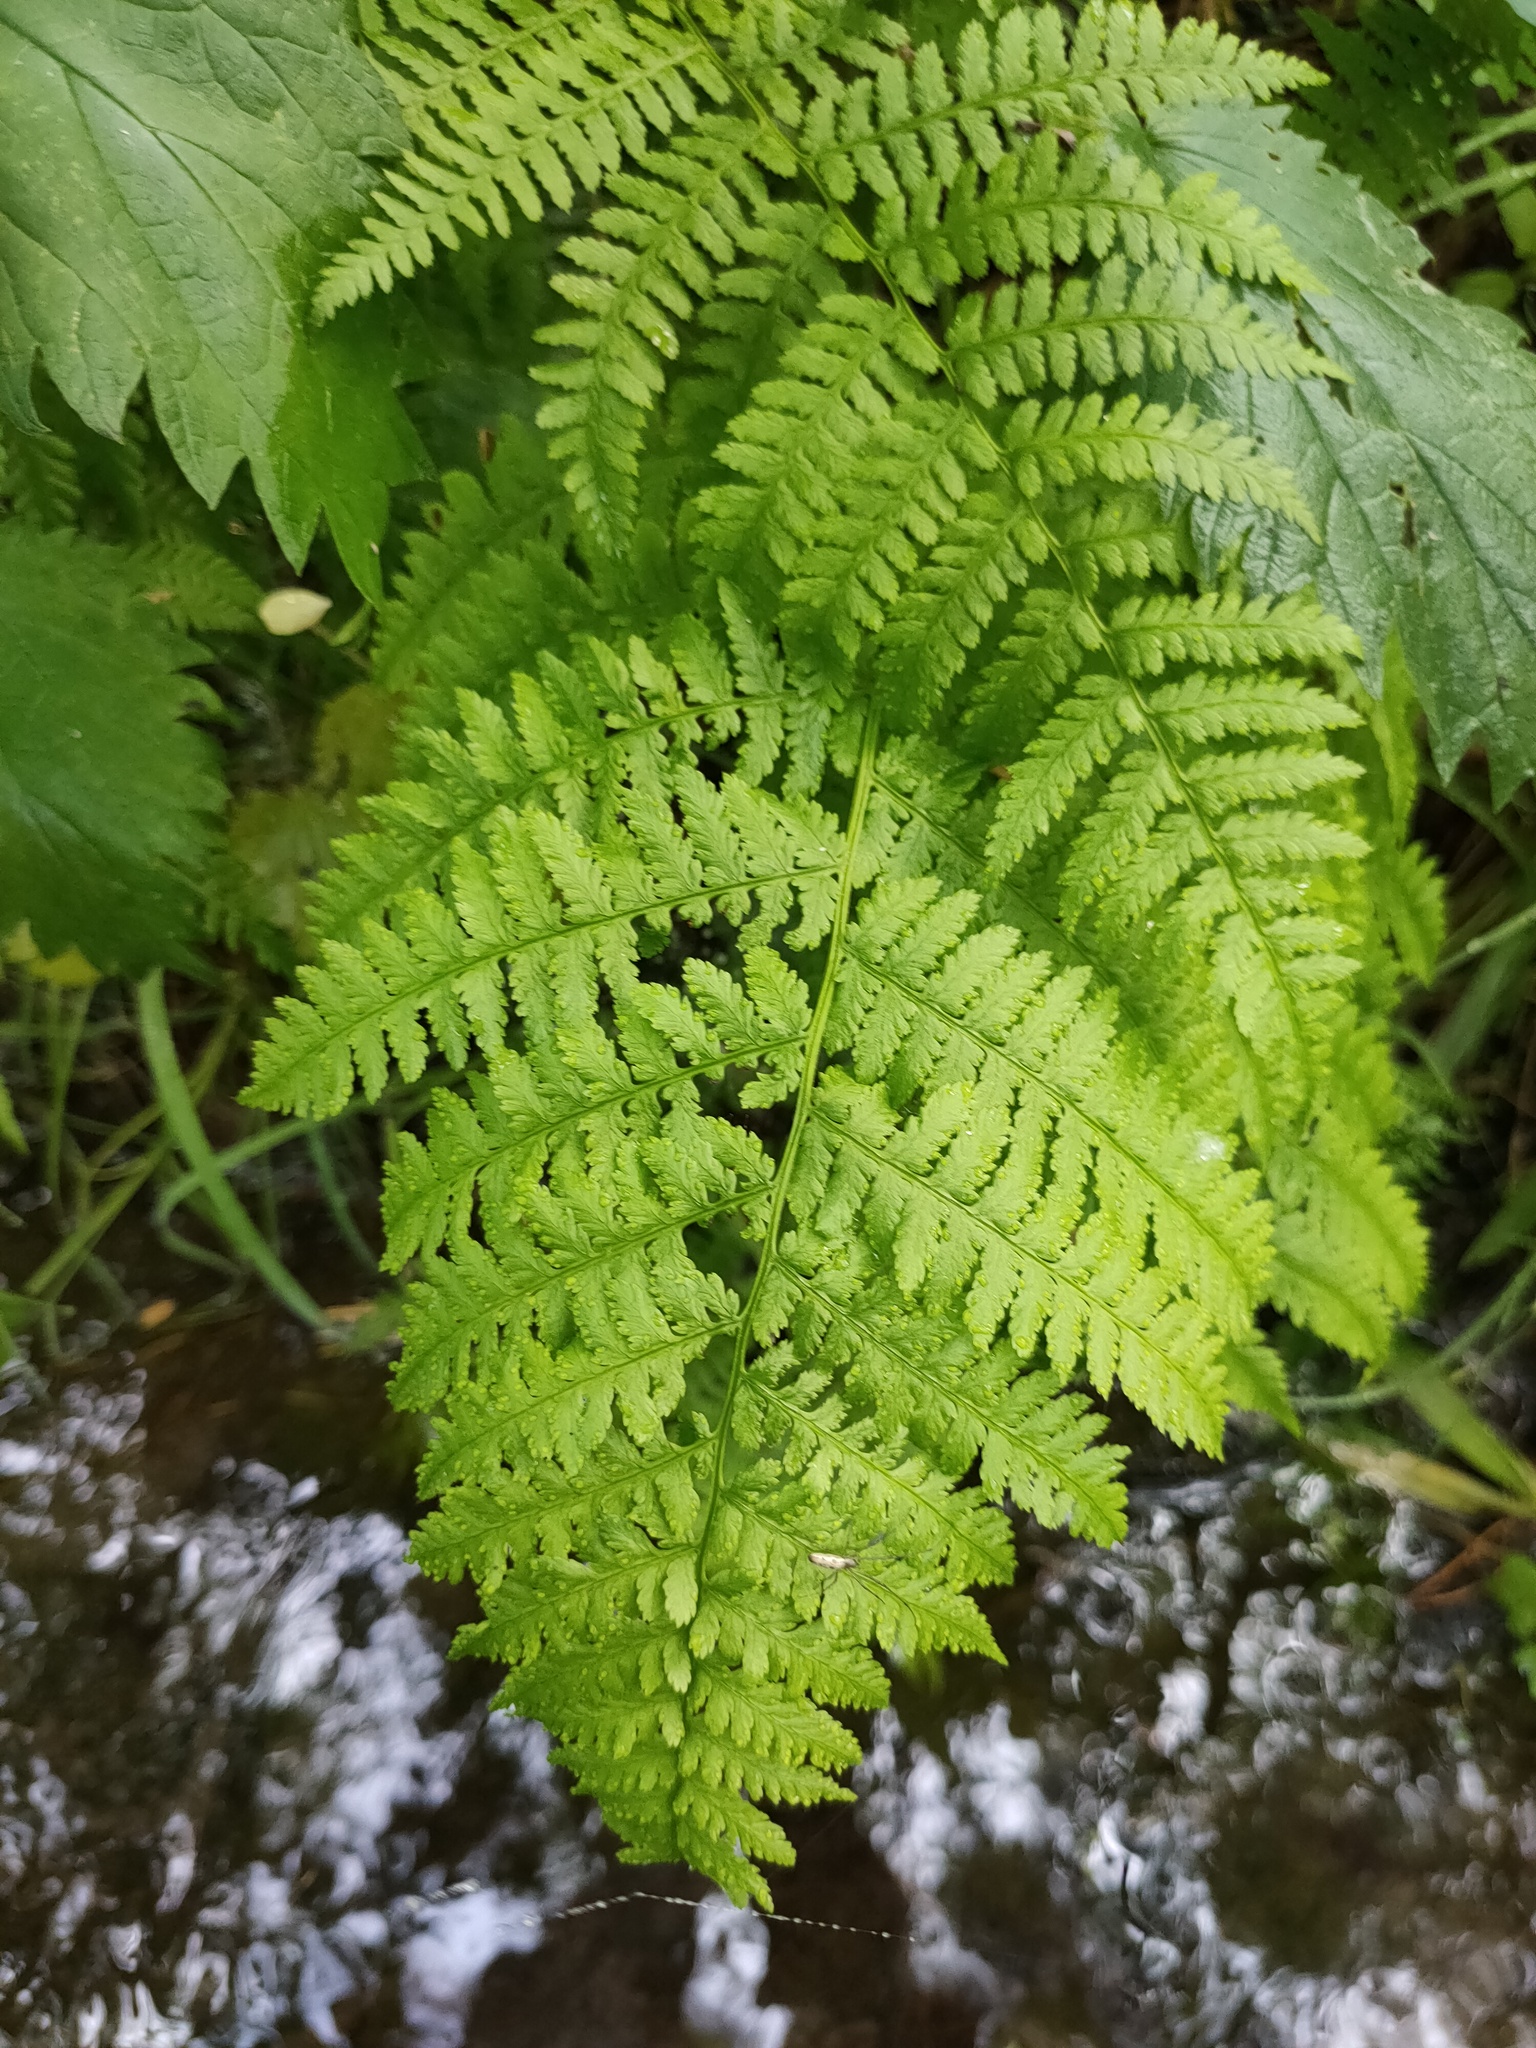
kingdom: Plantae
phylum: Tracheophyta
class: Polypodiopsida
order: Polypodiales
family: Athyriaceae
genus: Athyrium
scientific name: Athyrium filix-femina
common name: Lady fern
